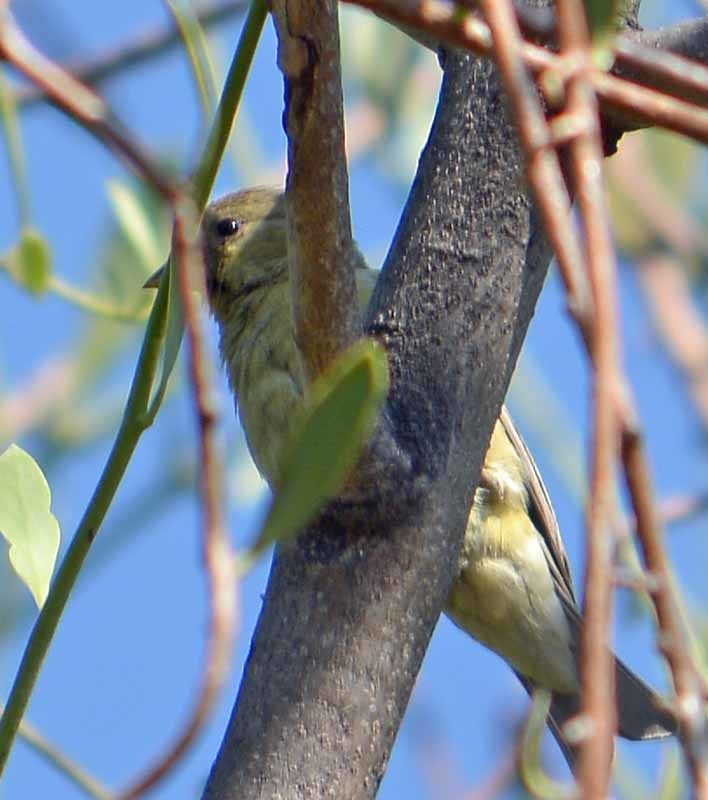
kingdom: Animalia
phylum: Chordata
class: Aves
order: Passeriformes
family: Fringillidae
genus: Spinus
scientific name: Spinus psaltria
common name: Lesser goldfinch
